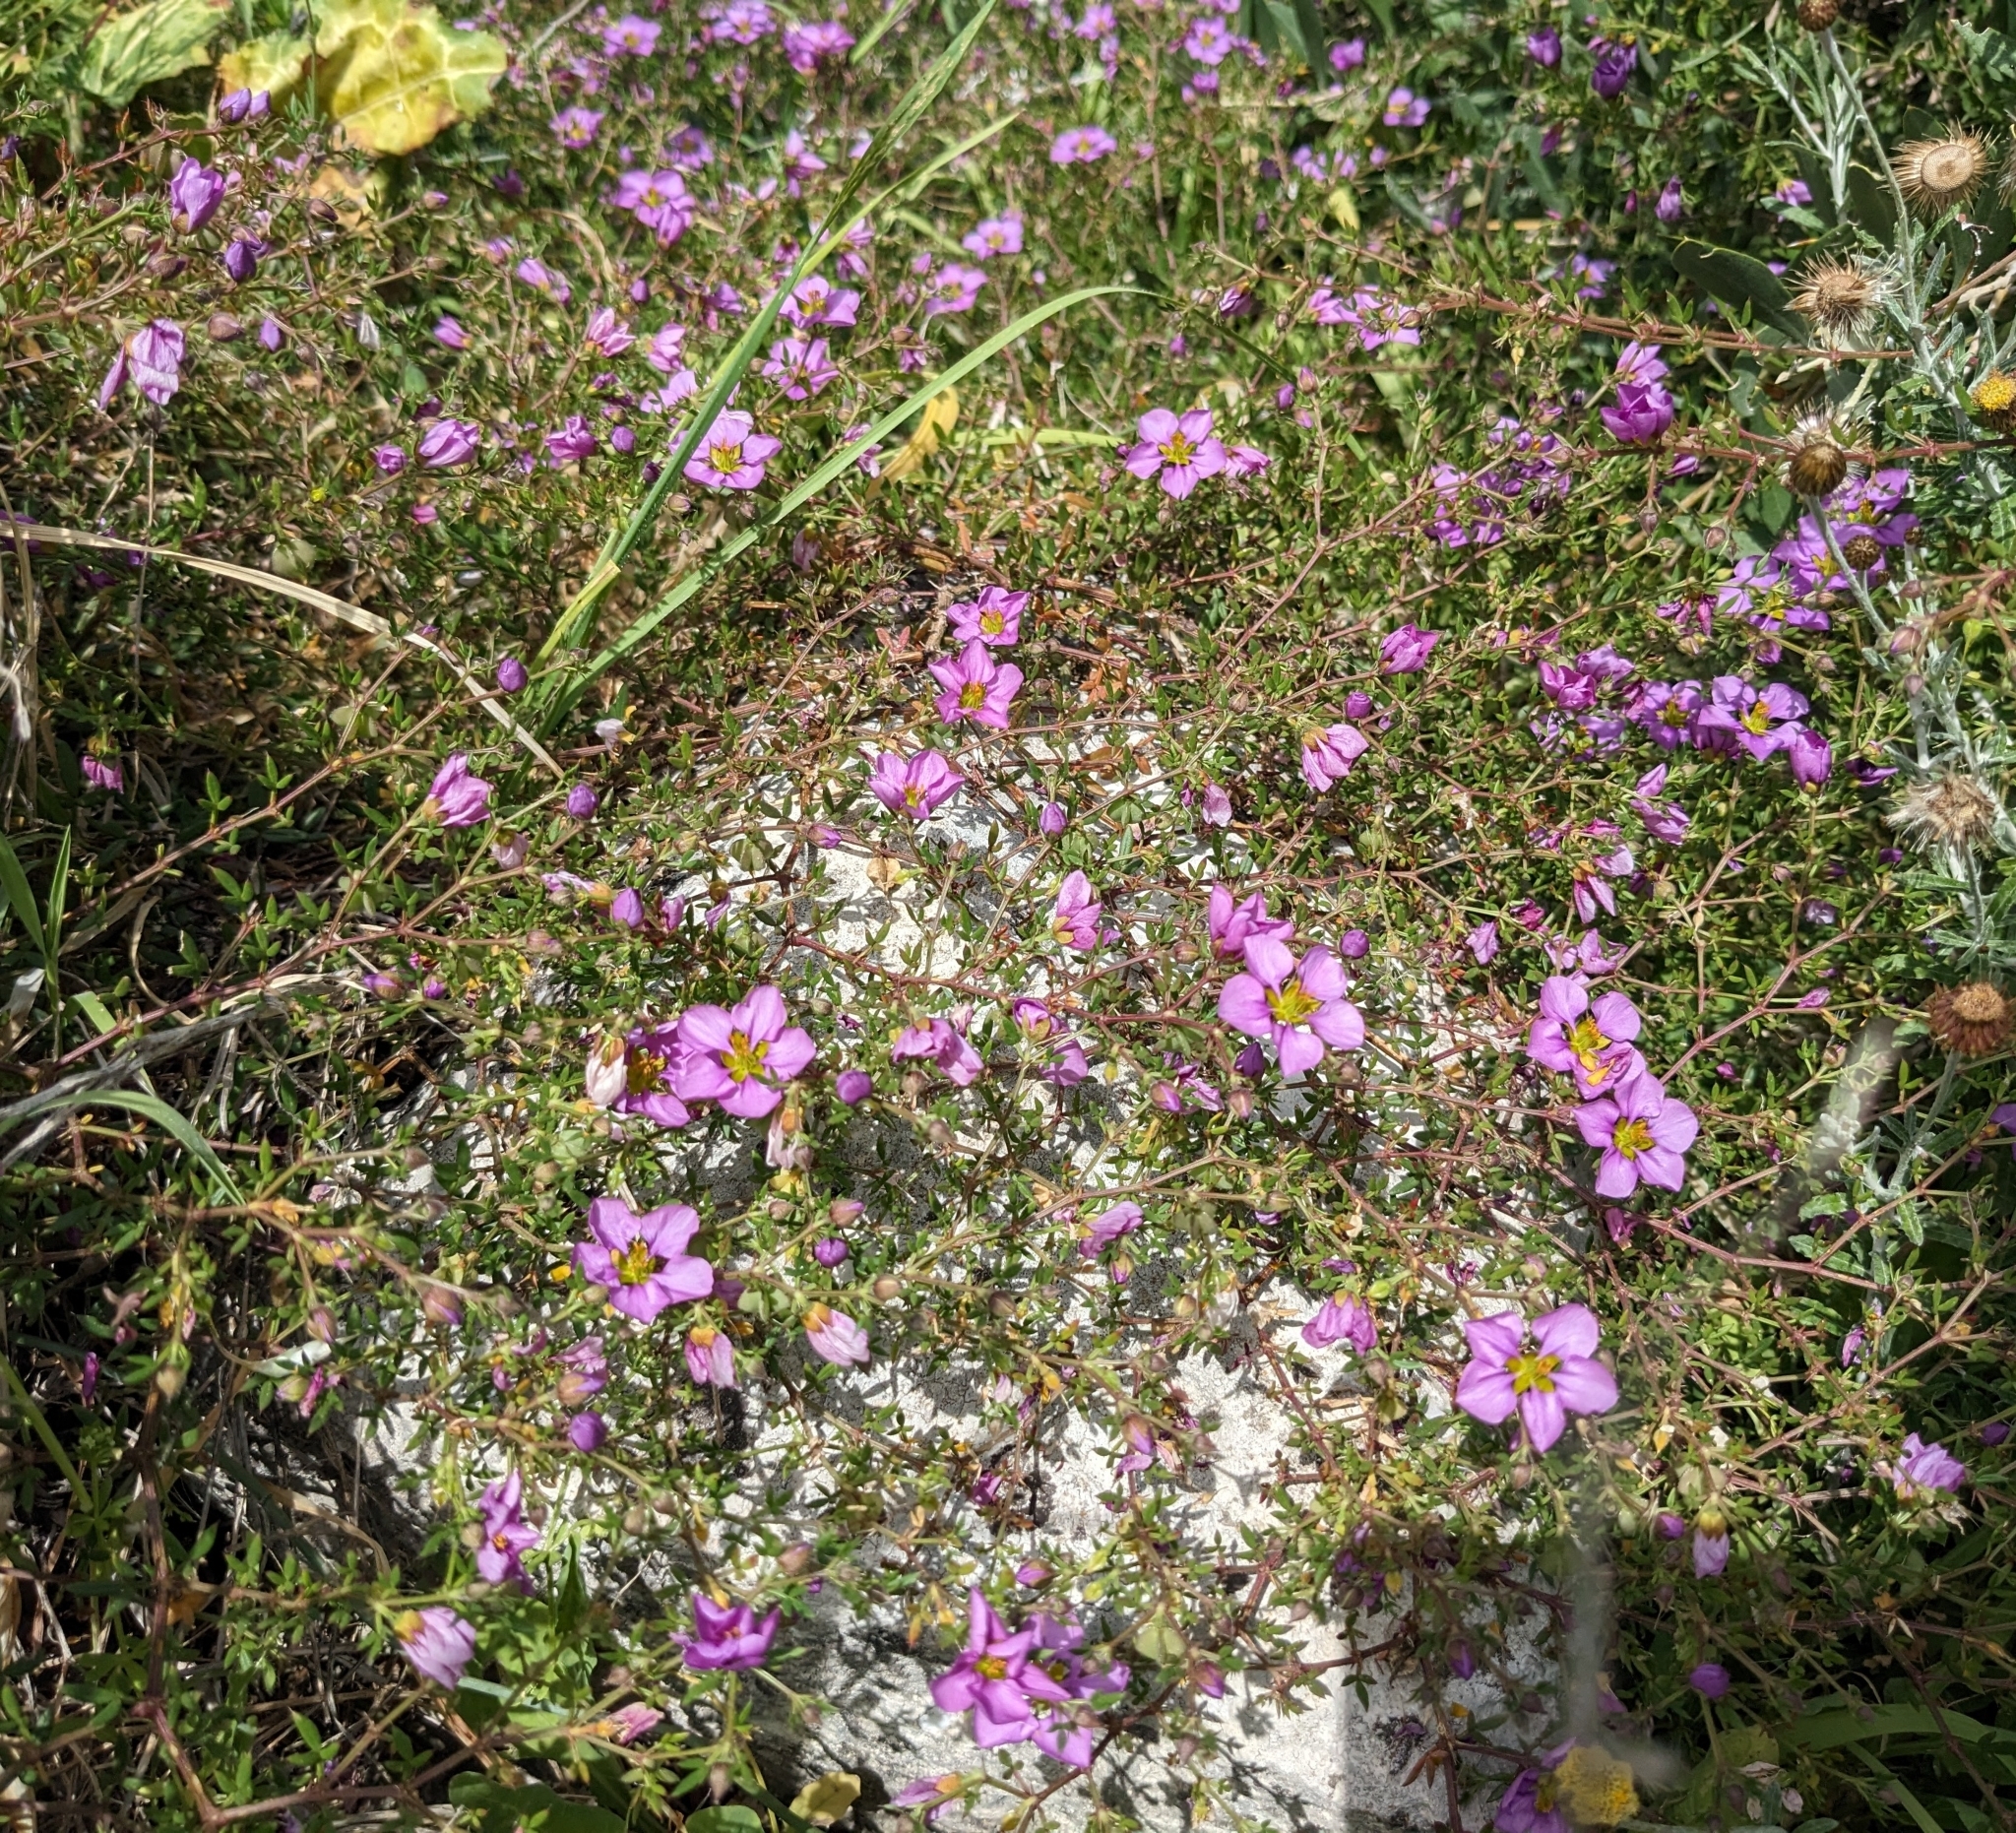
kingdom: Plantae
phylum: Tracheophyta
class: Magnoliopsida
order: Zygophyllales
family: Zygophyllaceae
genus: Fagonia
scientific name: Fagonia cretica
